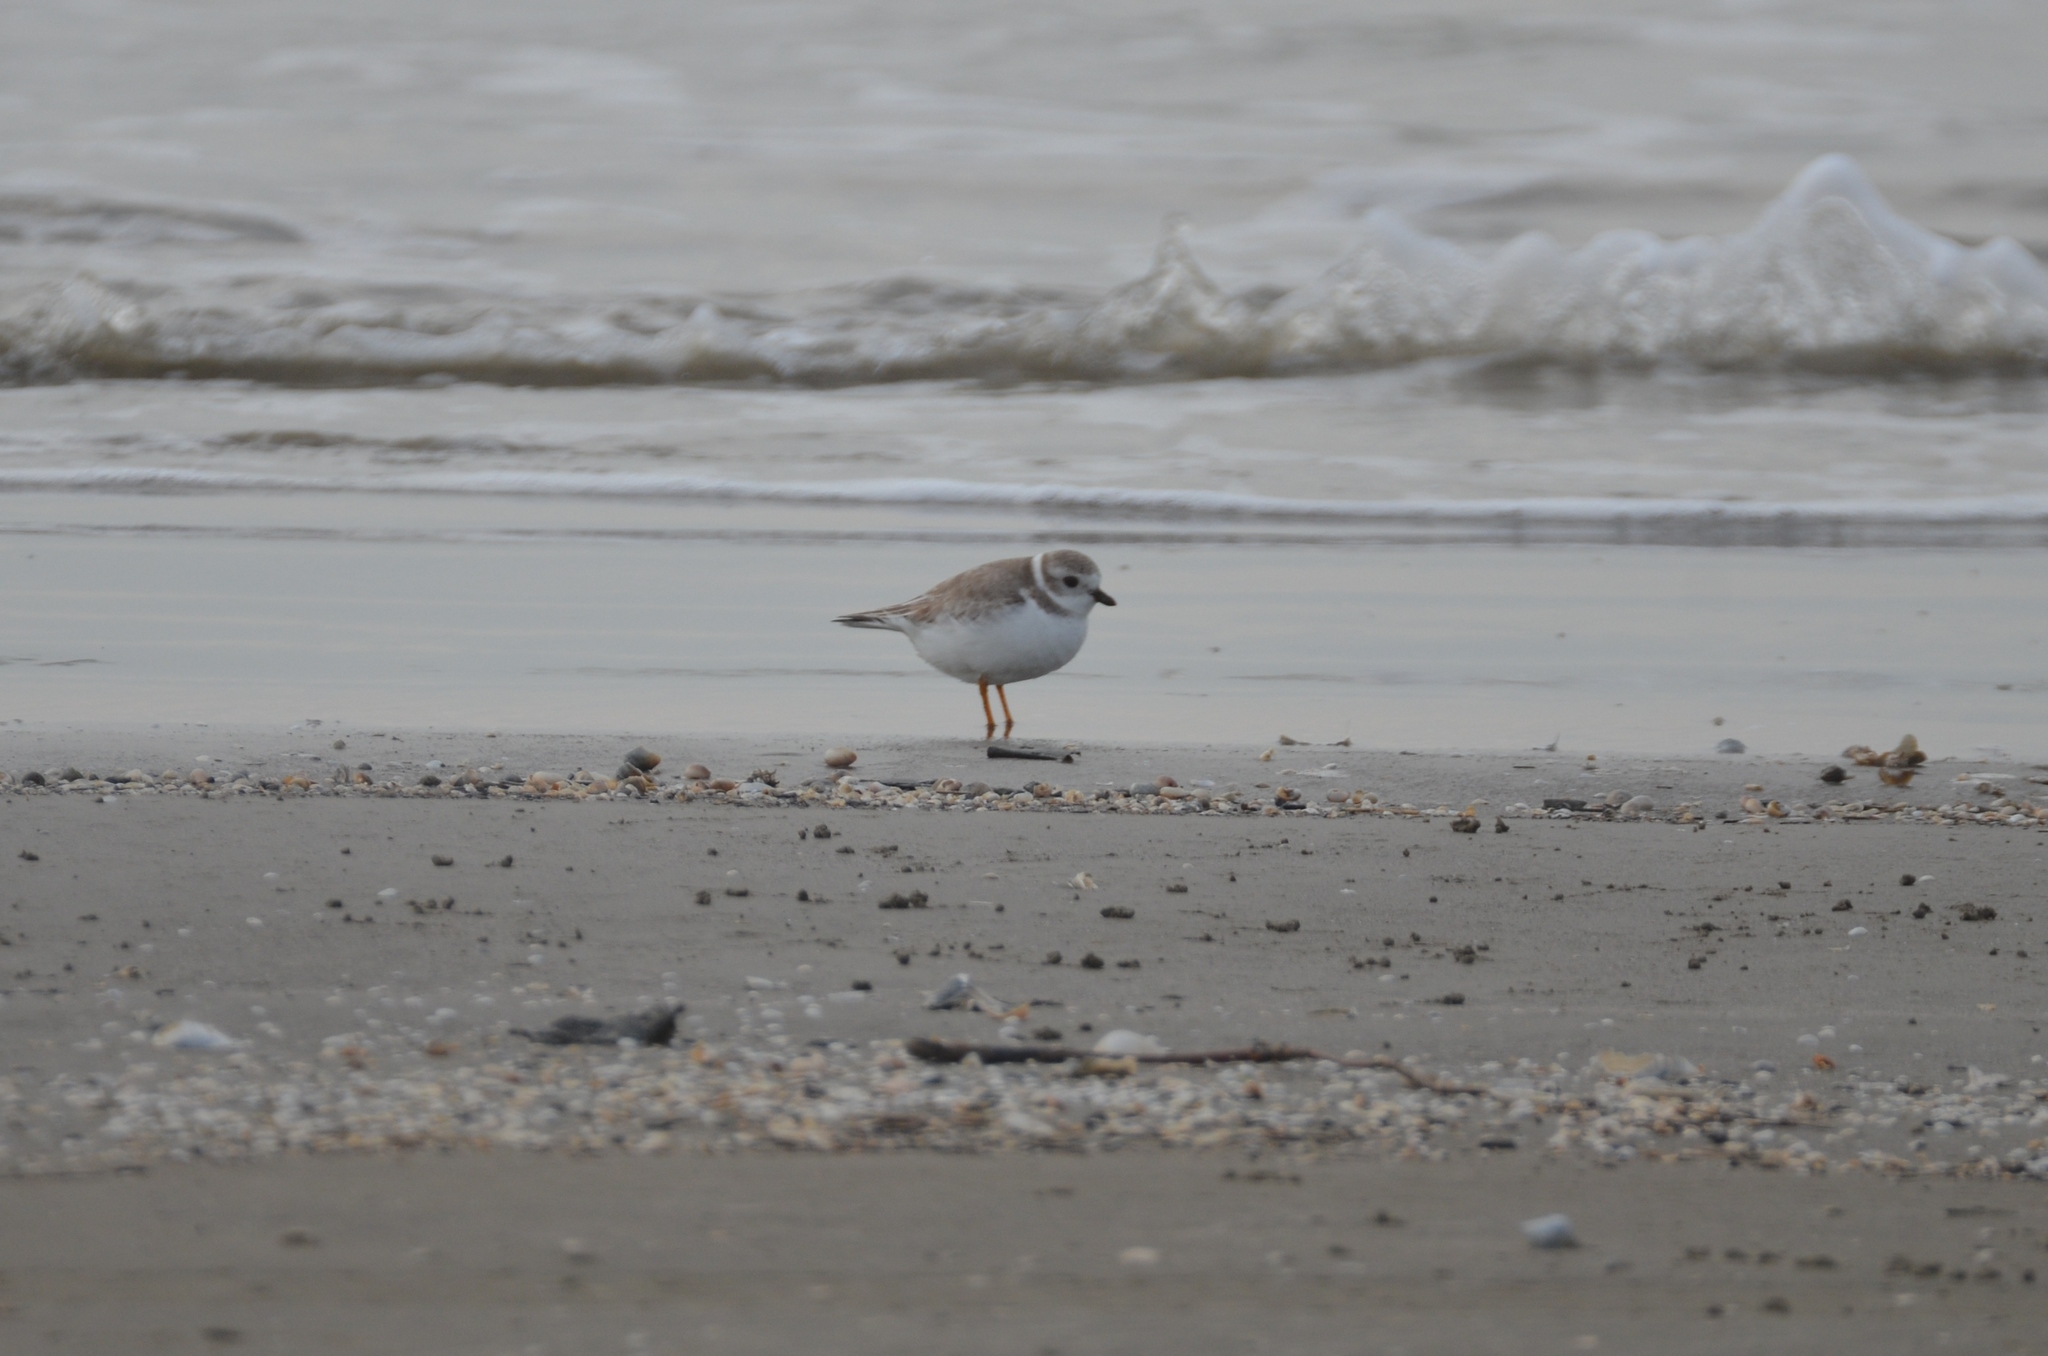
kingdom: Animalia
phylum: Chordata
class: Aves
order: Charadriiformes
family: Charadriidae
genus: Charadrius
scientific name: Charadrius melodus
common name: Piping plover
